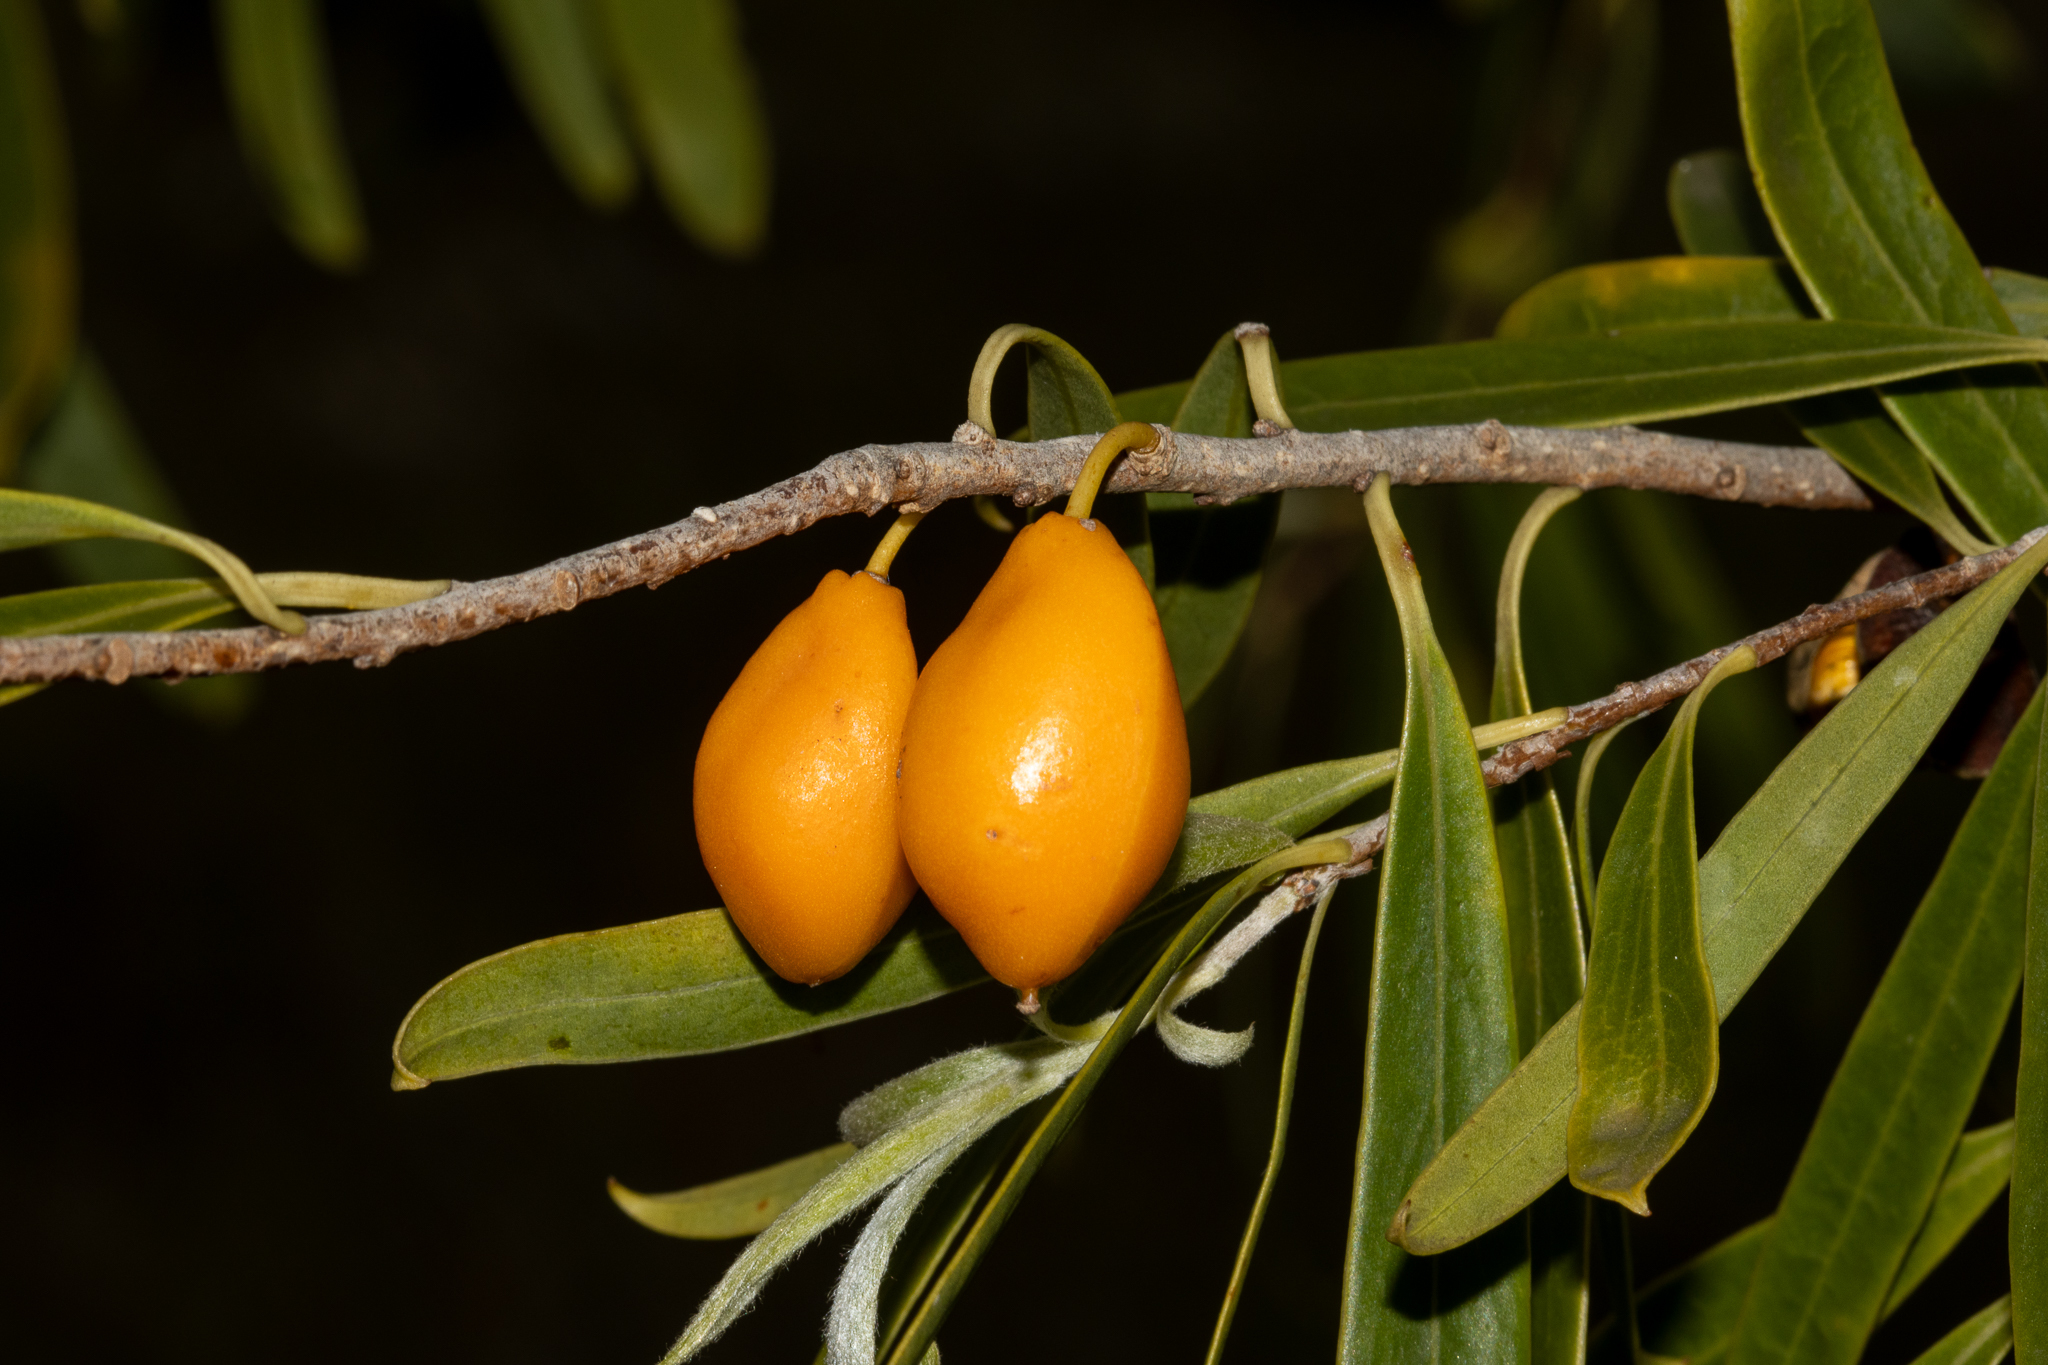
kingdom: Plantae
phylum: Tracheophyta
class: Magnoliopsida
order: Apiales
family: Pittosporaceae
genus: Pittosporum
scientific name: Pittosporum angustifolium
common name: Weeping pittosporum
